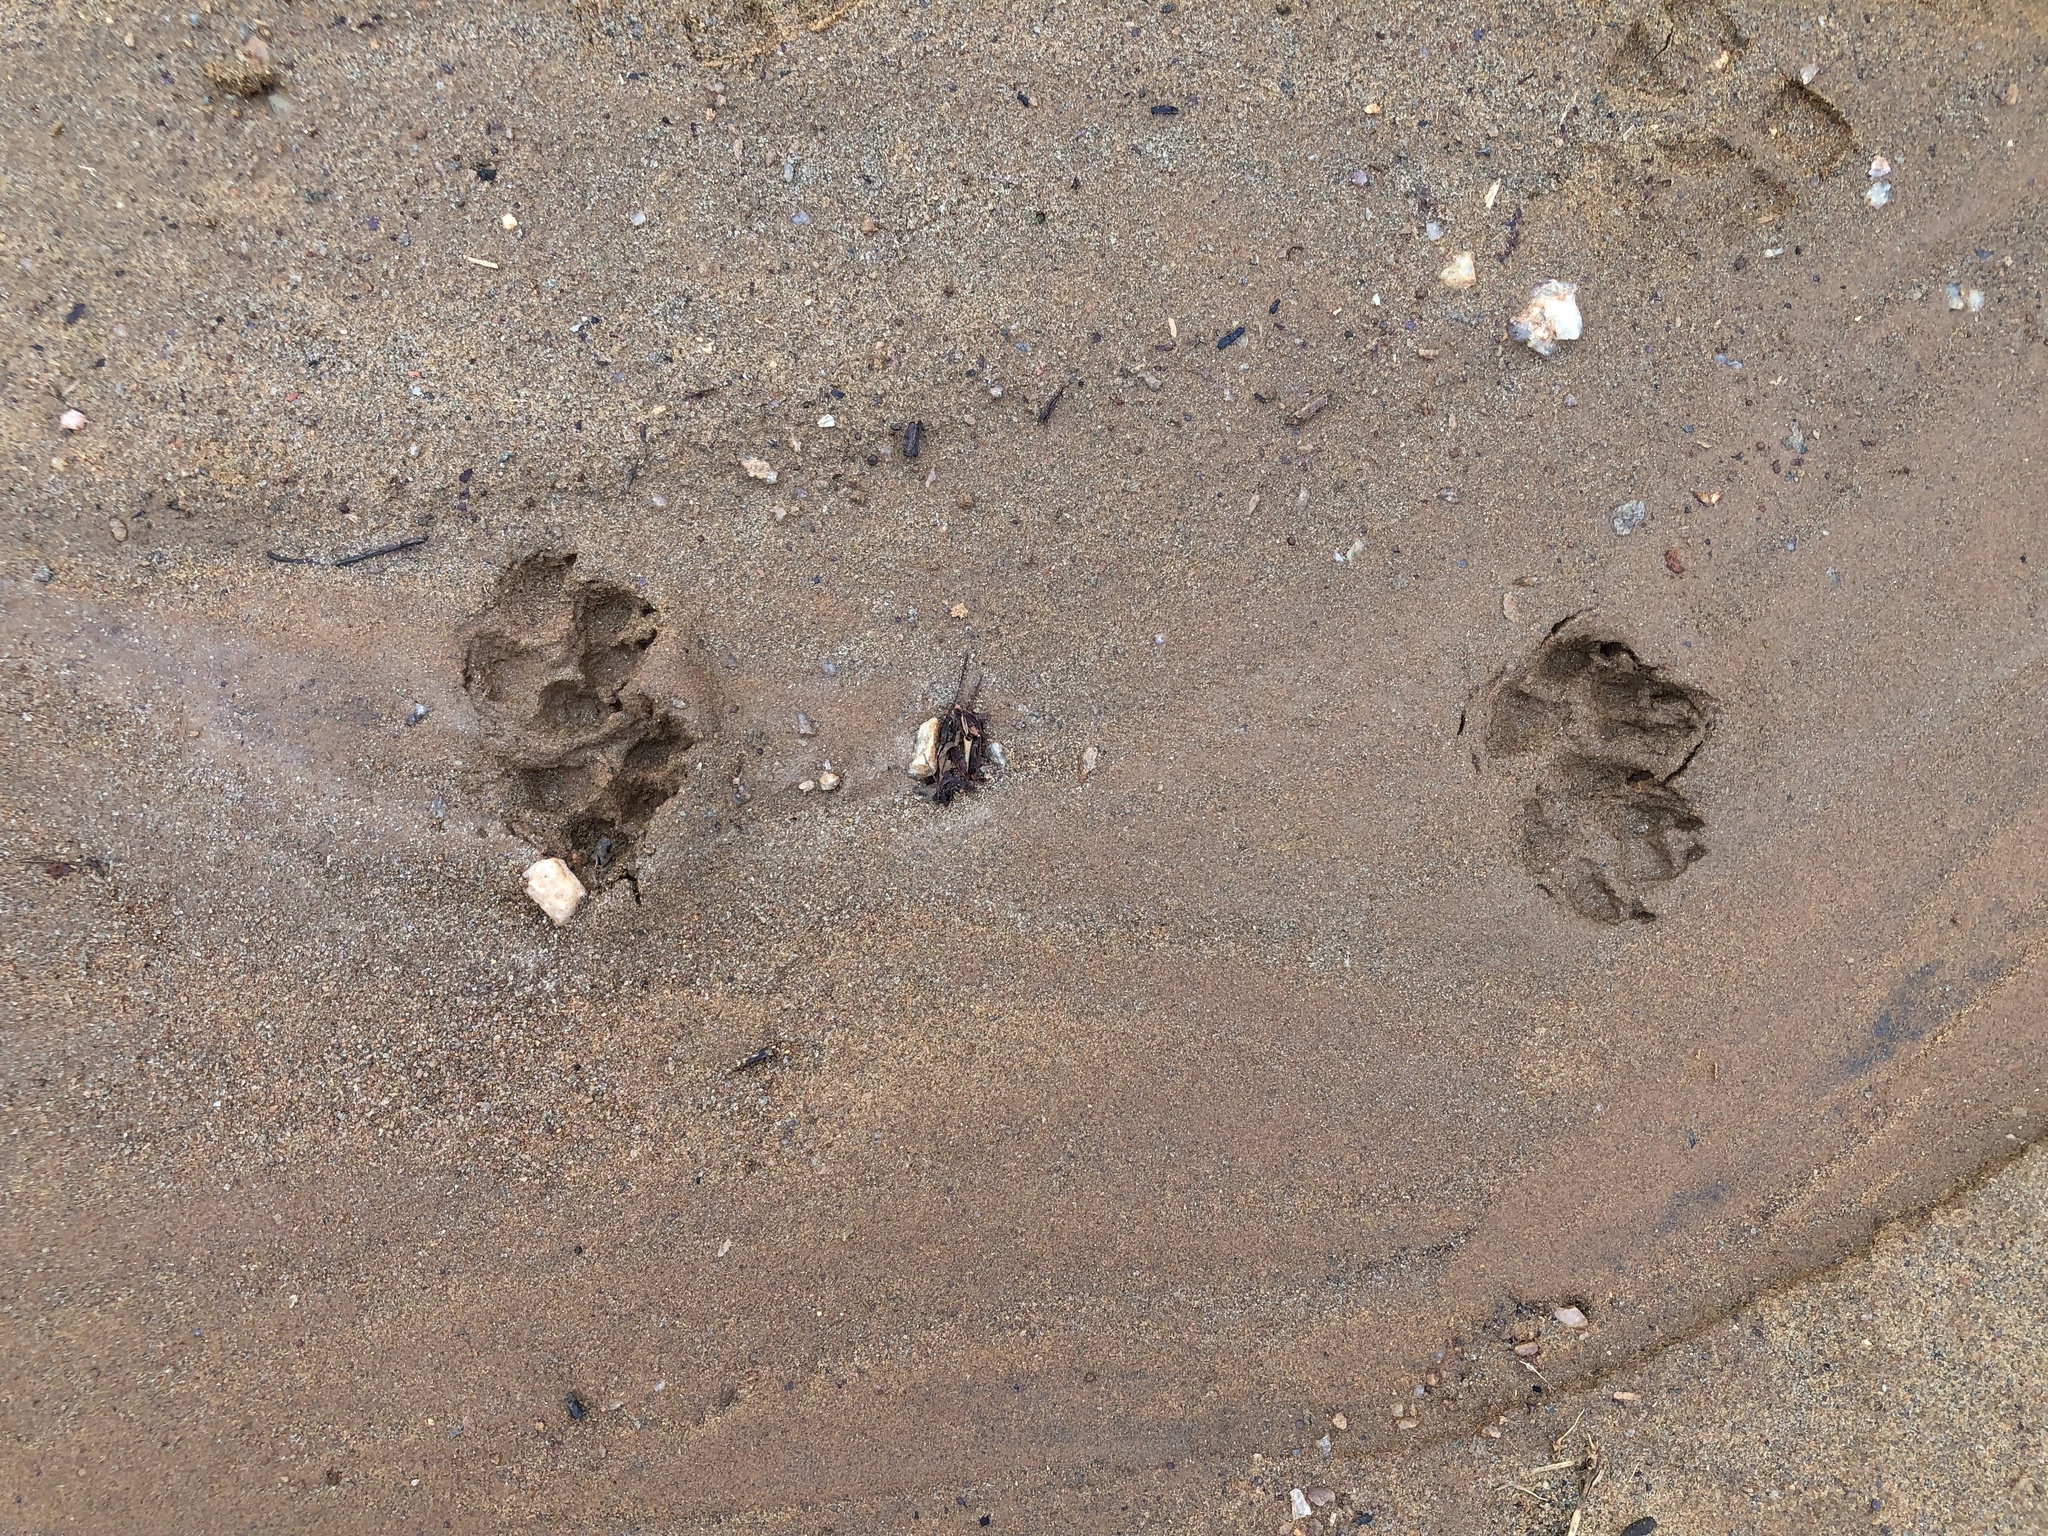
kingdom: Animalia
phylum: Chordata
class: Mammalia
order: Carnivora
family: Canidae
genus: Cerdocyon
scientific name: Cerdocyon thous
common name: Crab-eating fox
